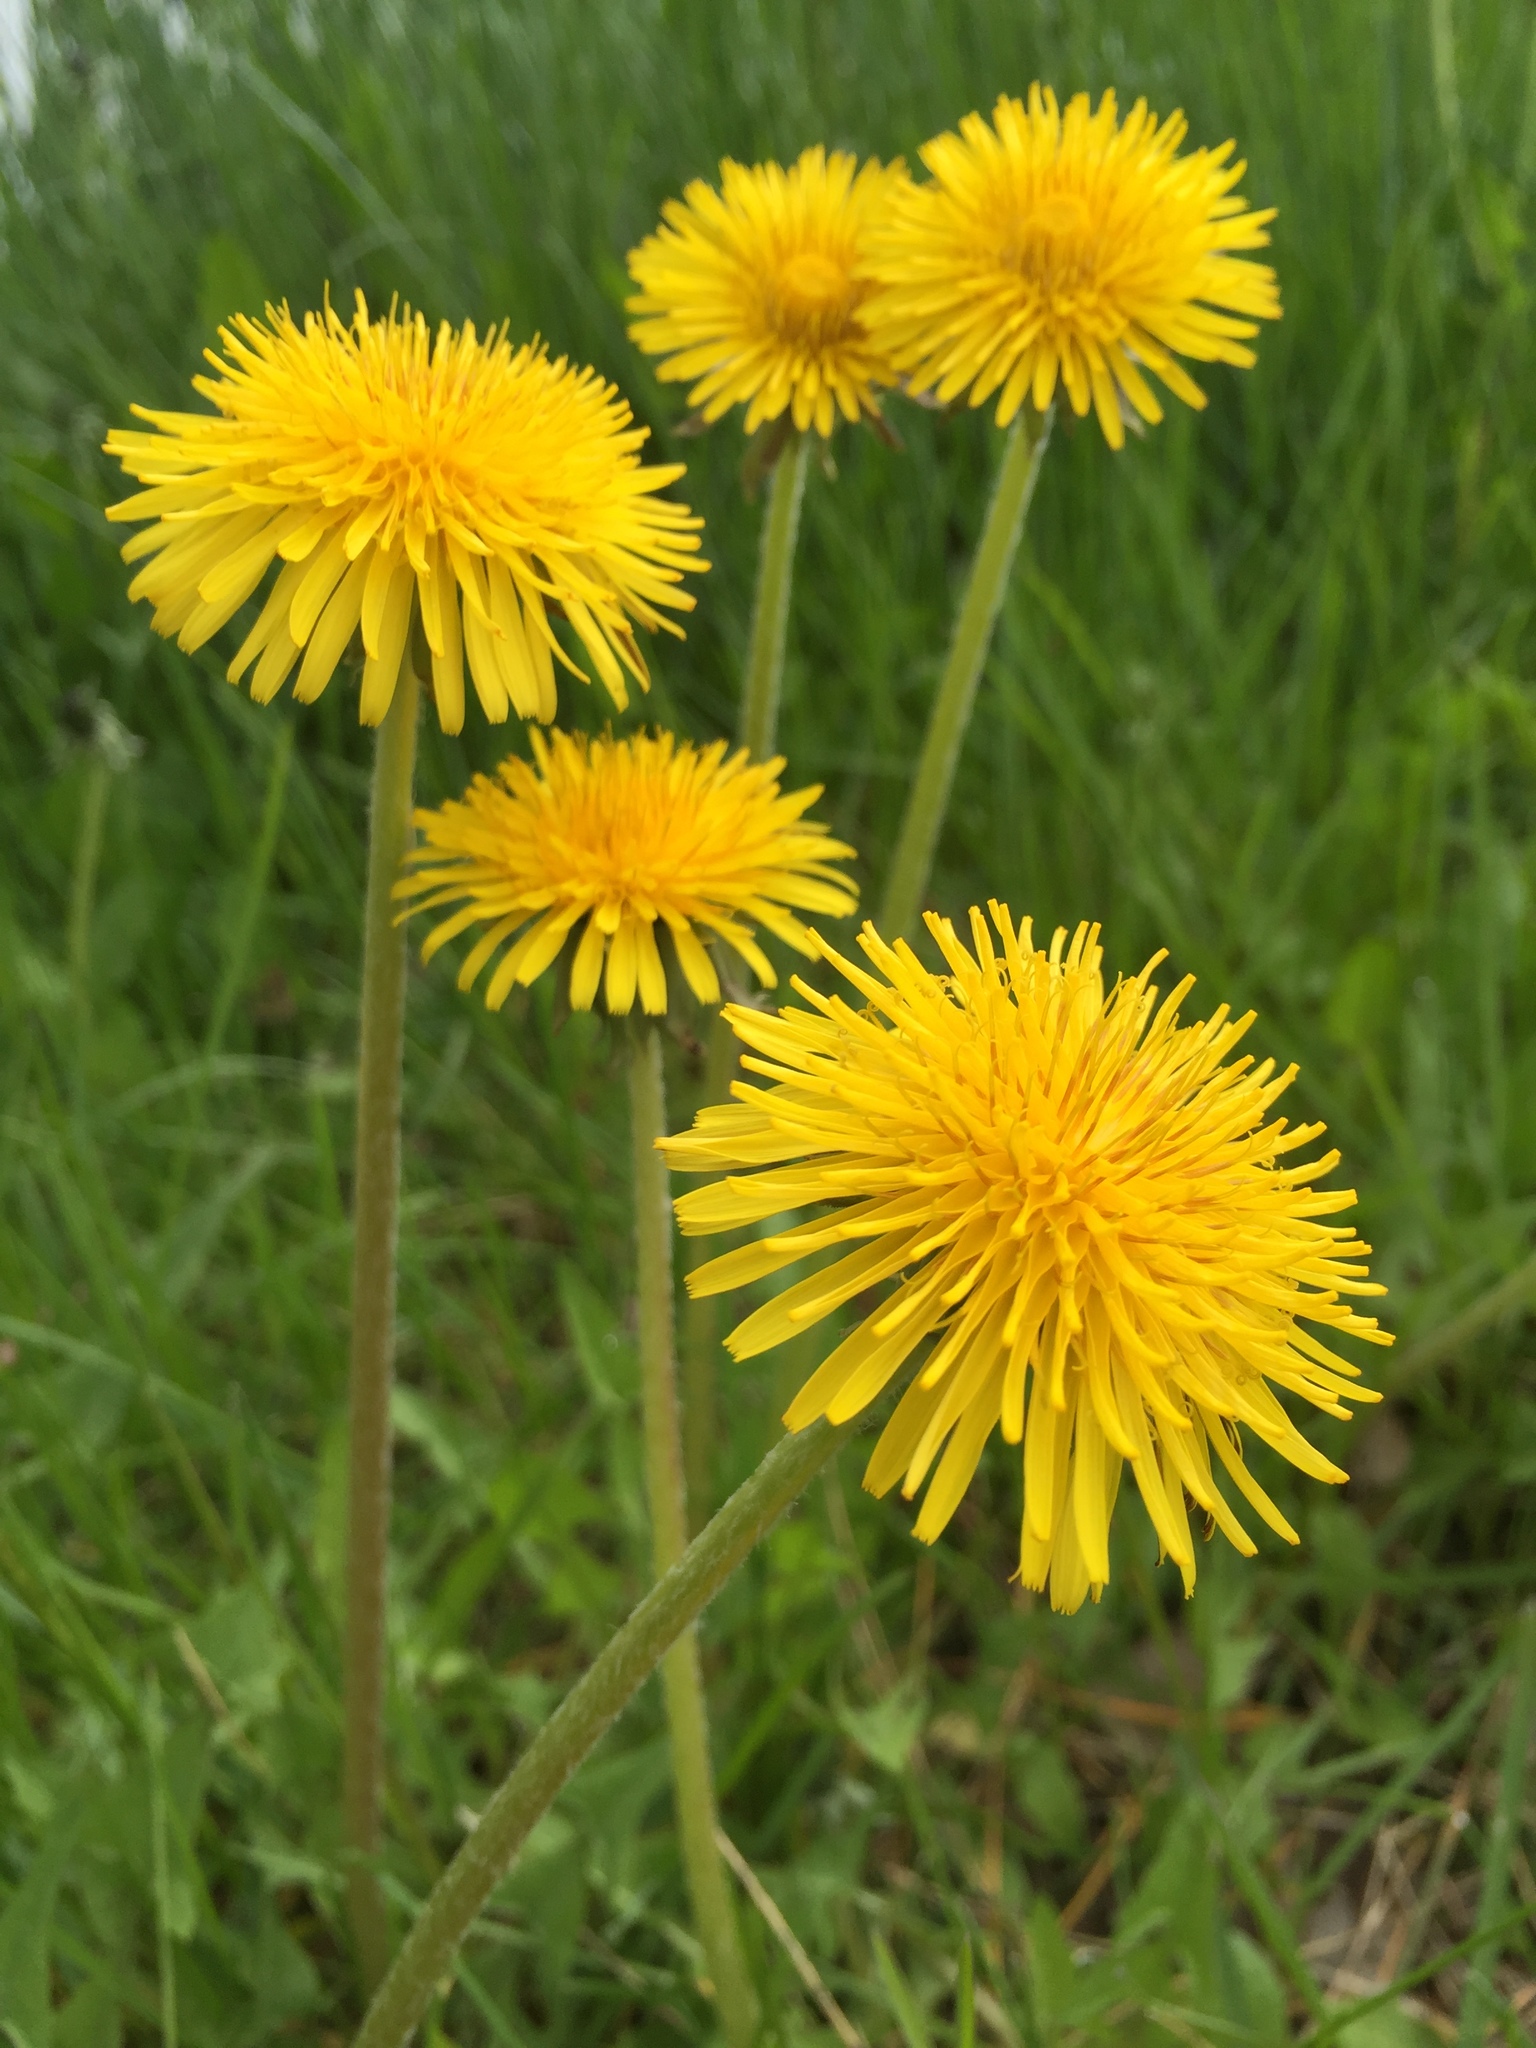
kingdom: Plantae
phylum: Tracheophyta
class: Magnoliopsida
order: Asterales
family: Asteraceae
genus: Taraxacum
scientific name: Taraxacum officinale
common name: Common dandelion
